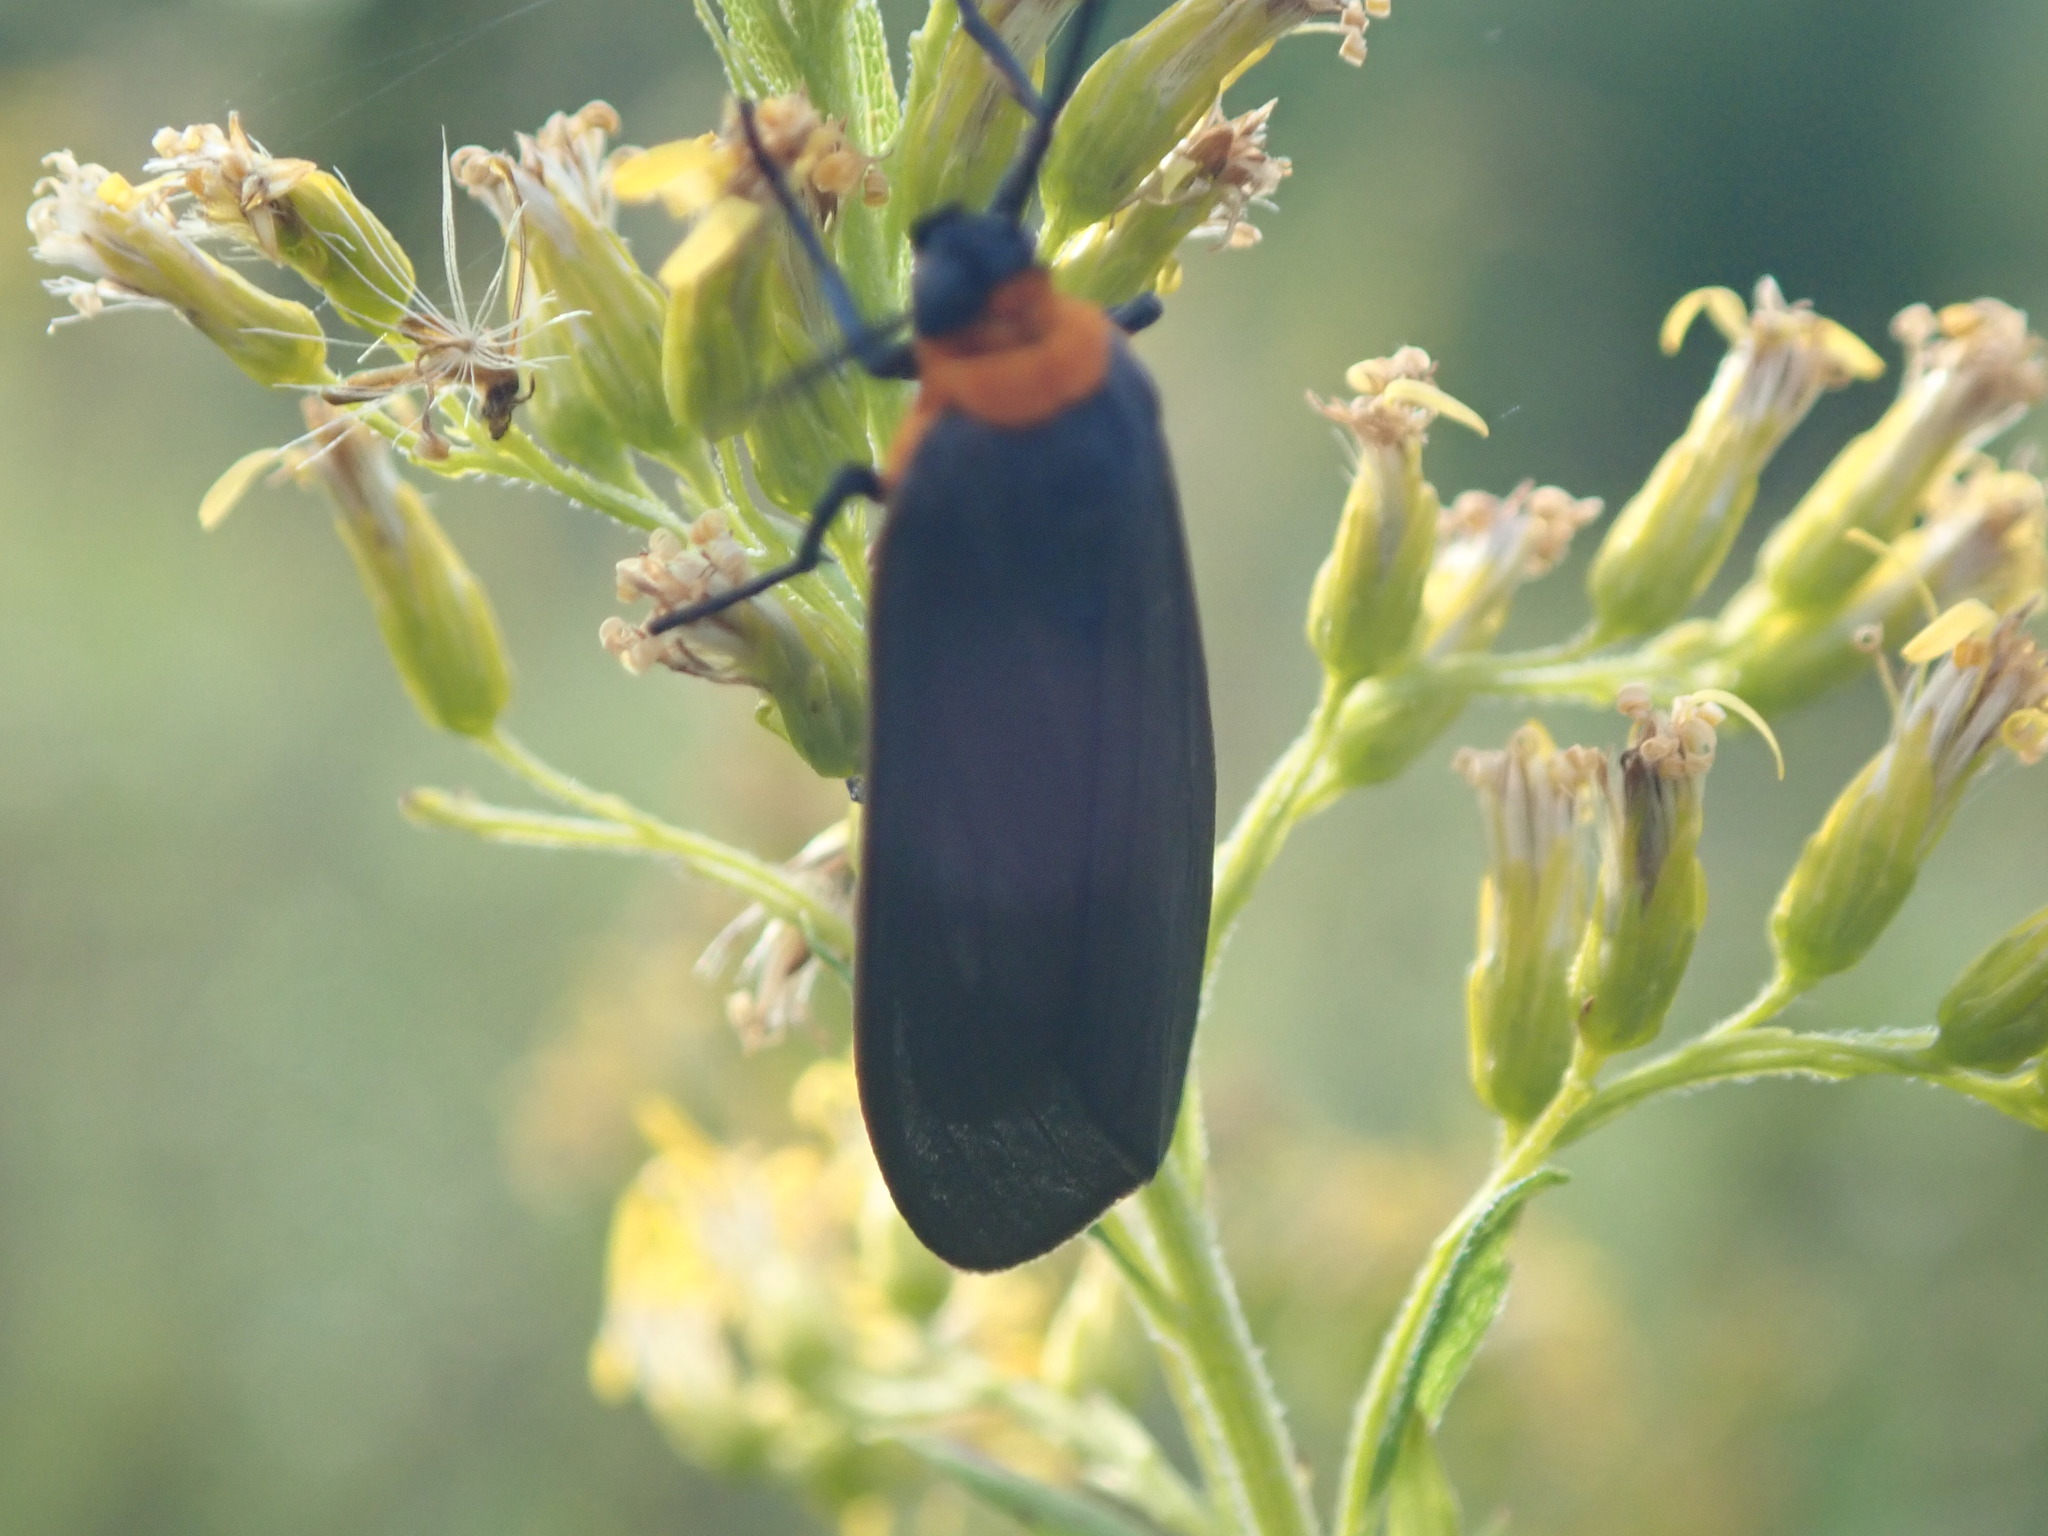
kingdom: Animalia
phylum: Arthropoda
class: Insecta
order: Lepidoptera
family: Erebidae
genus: Cisseps
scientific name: Cisseps fulvicollis
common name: Yellow-collared scape moth
